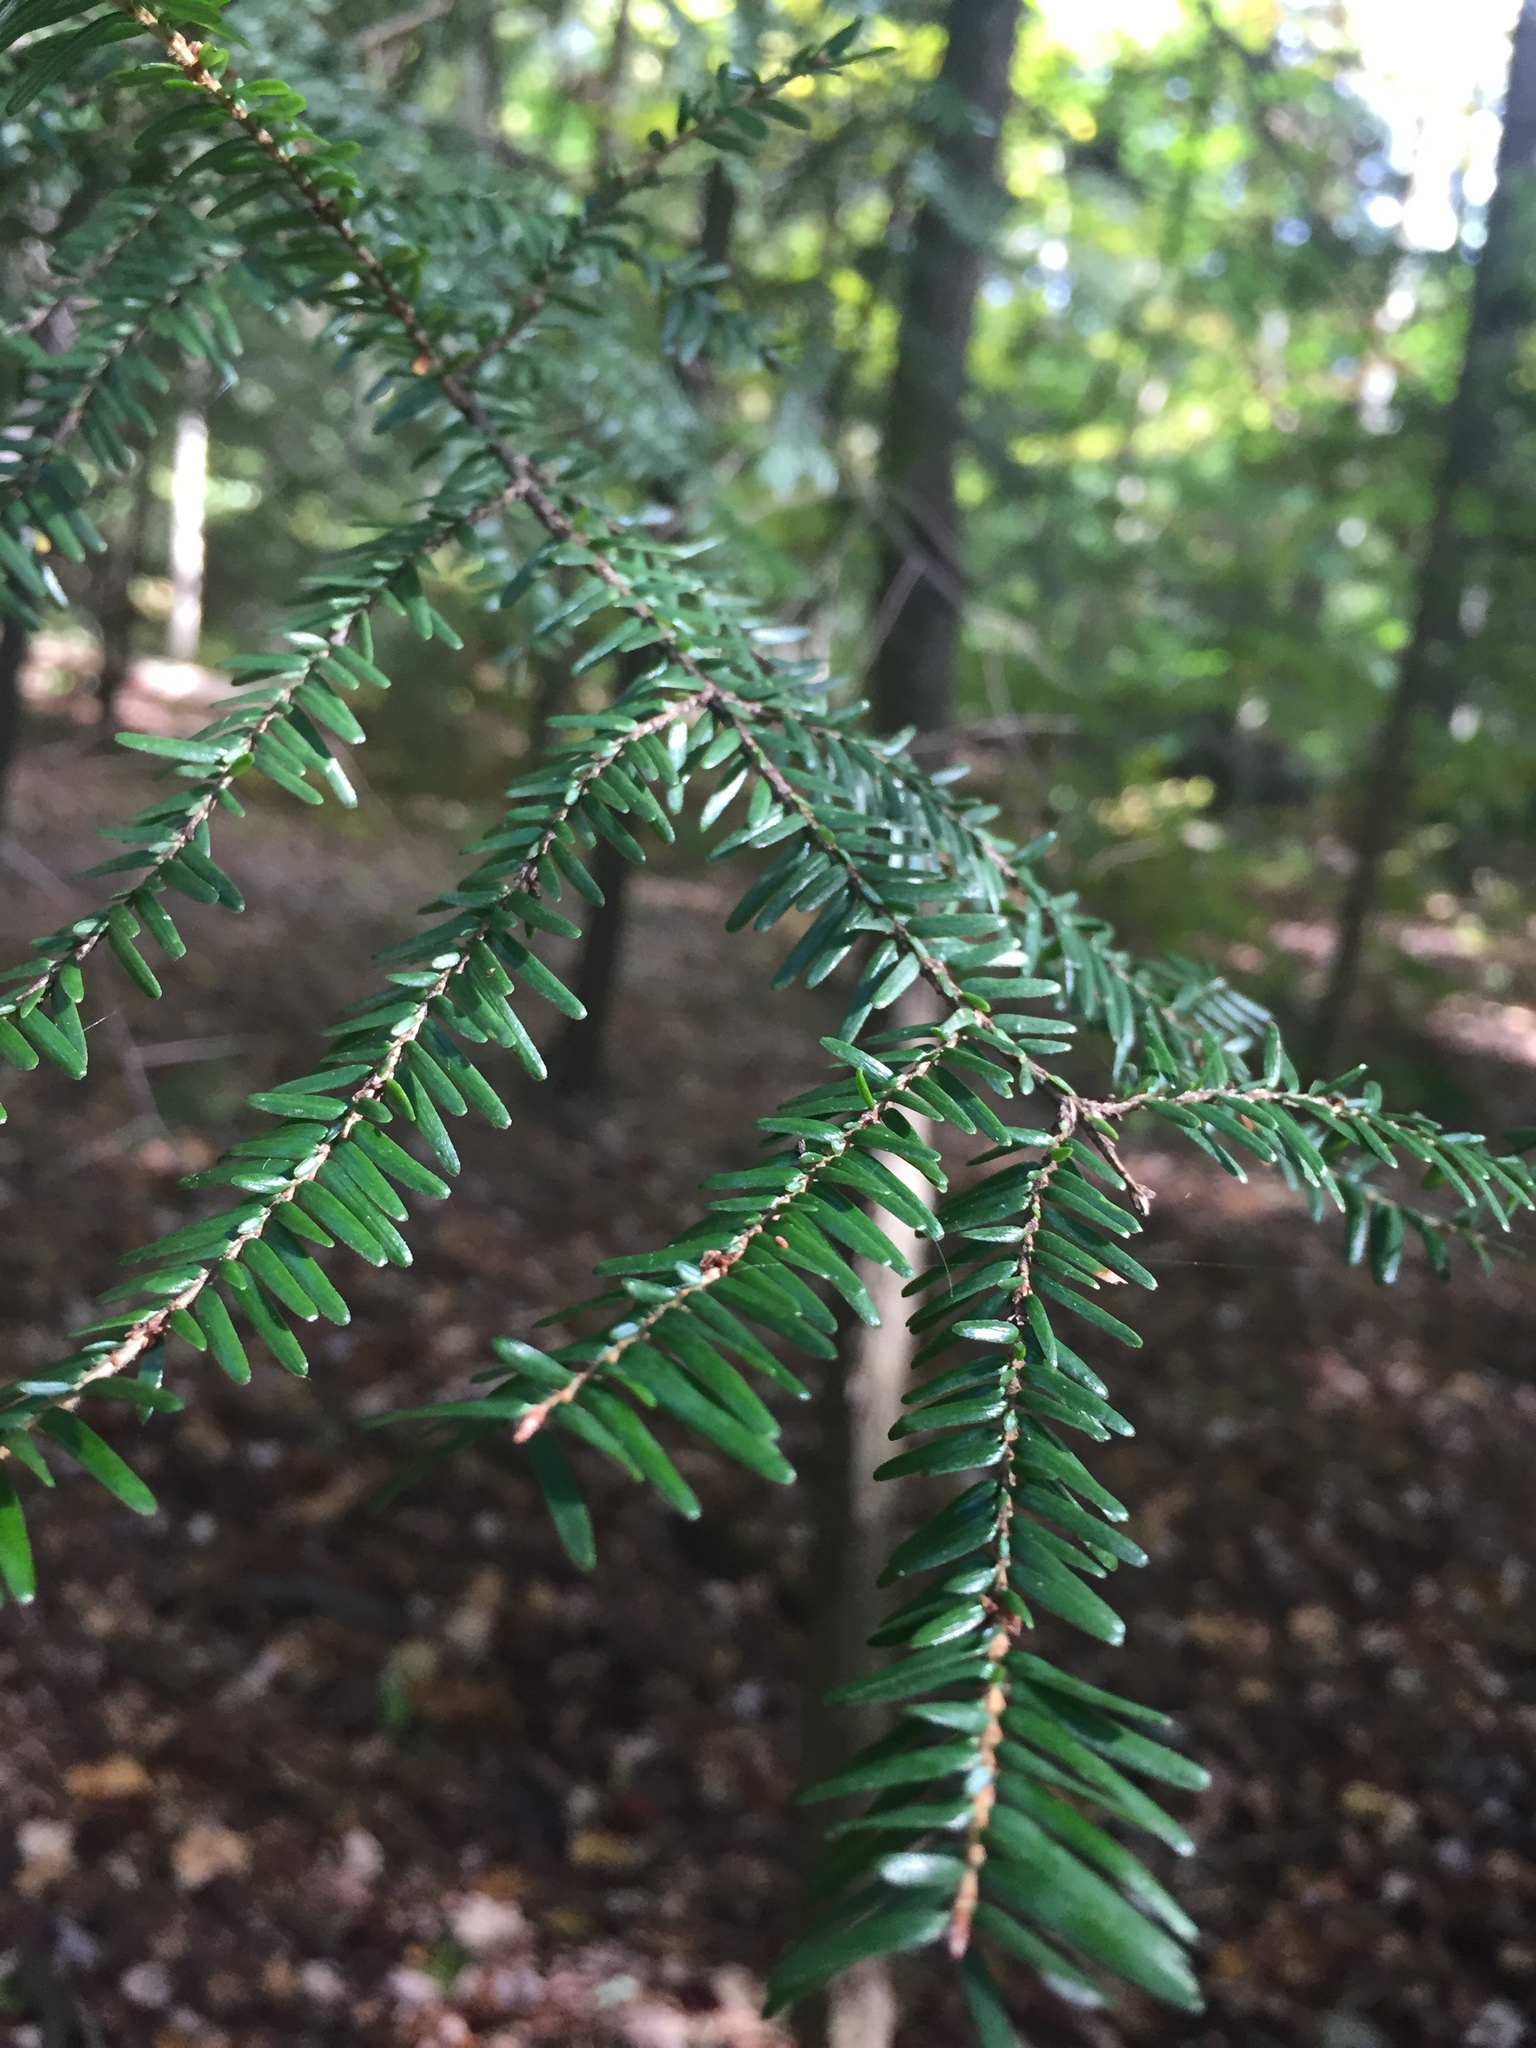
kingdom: Plantae
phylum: Tracheophyta
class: Pinopsida
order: Pinales
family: Pinaceae
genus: Tsuga
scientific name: Tsuga canadensis
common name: Eastern hemlock
